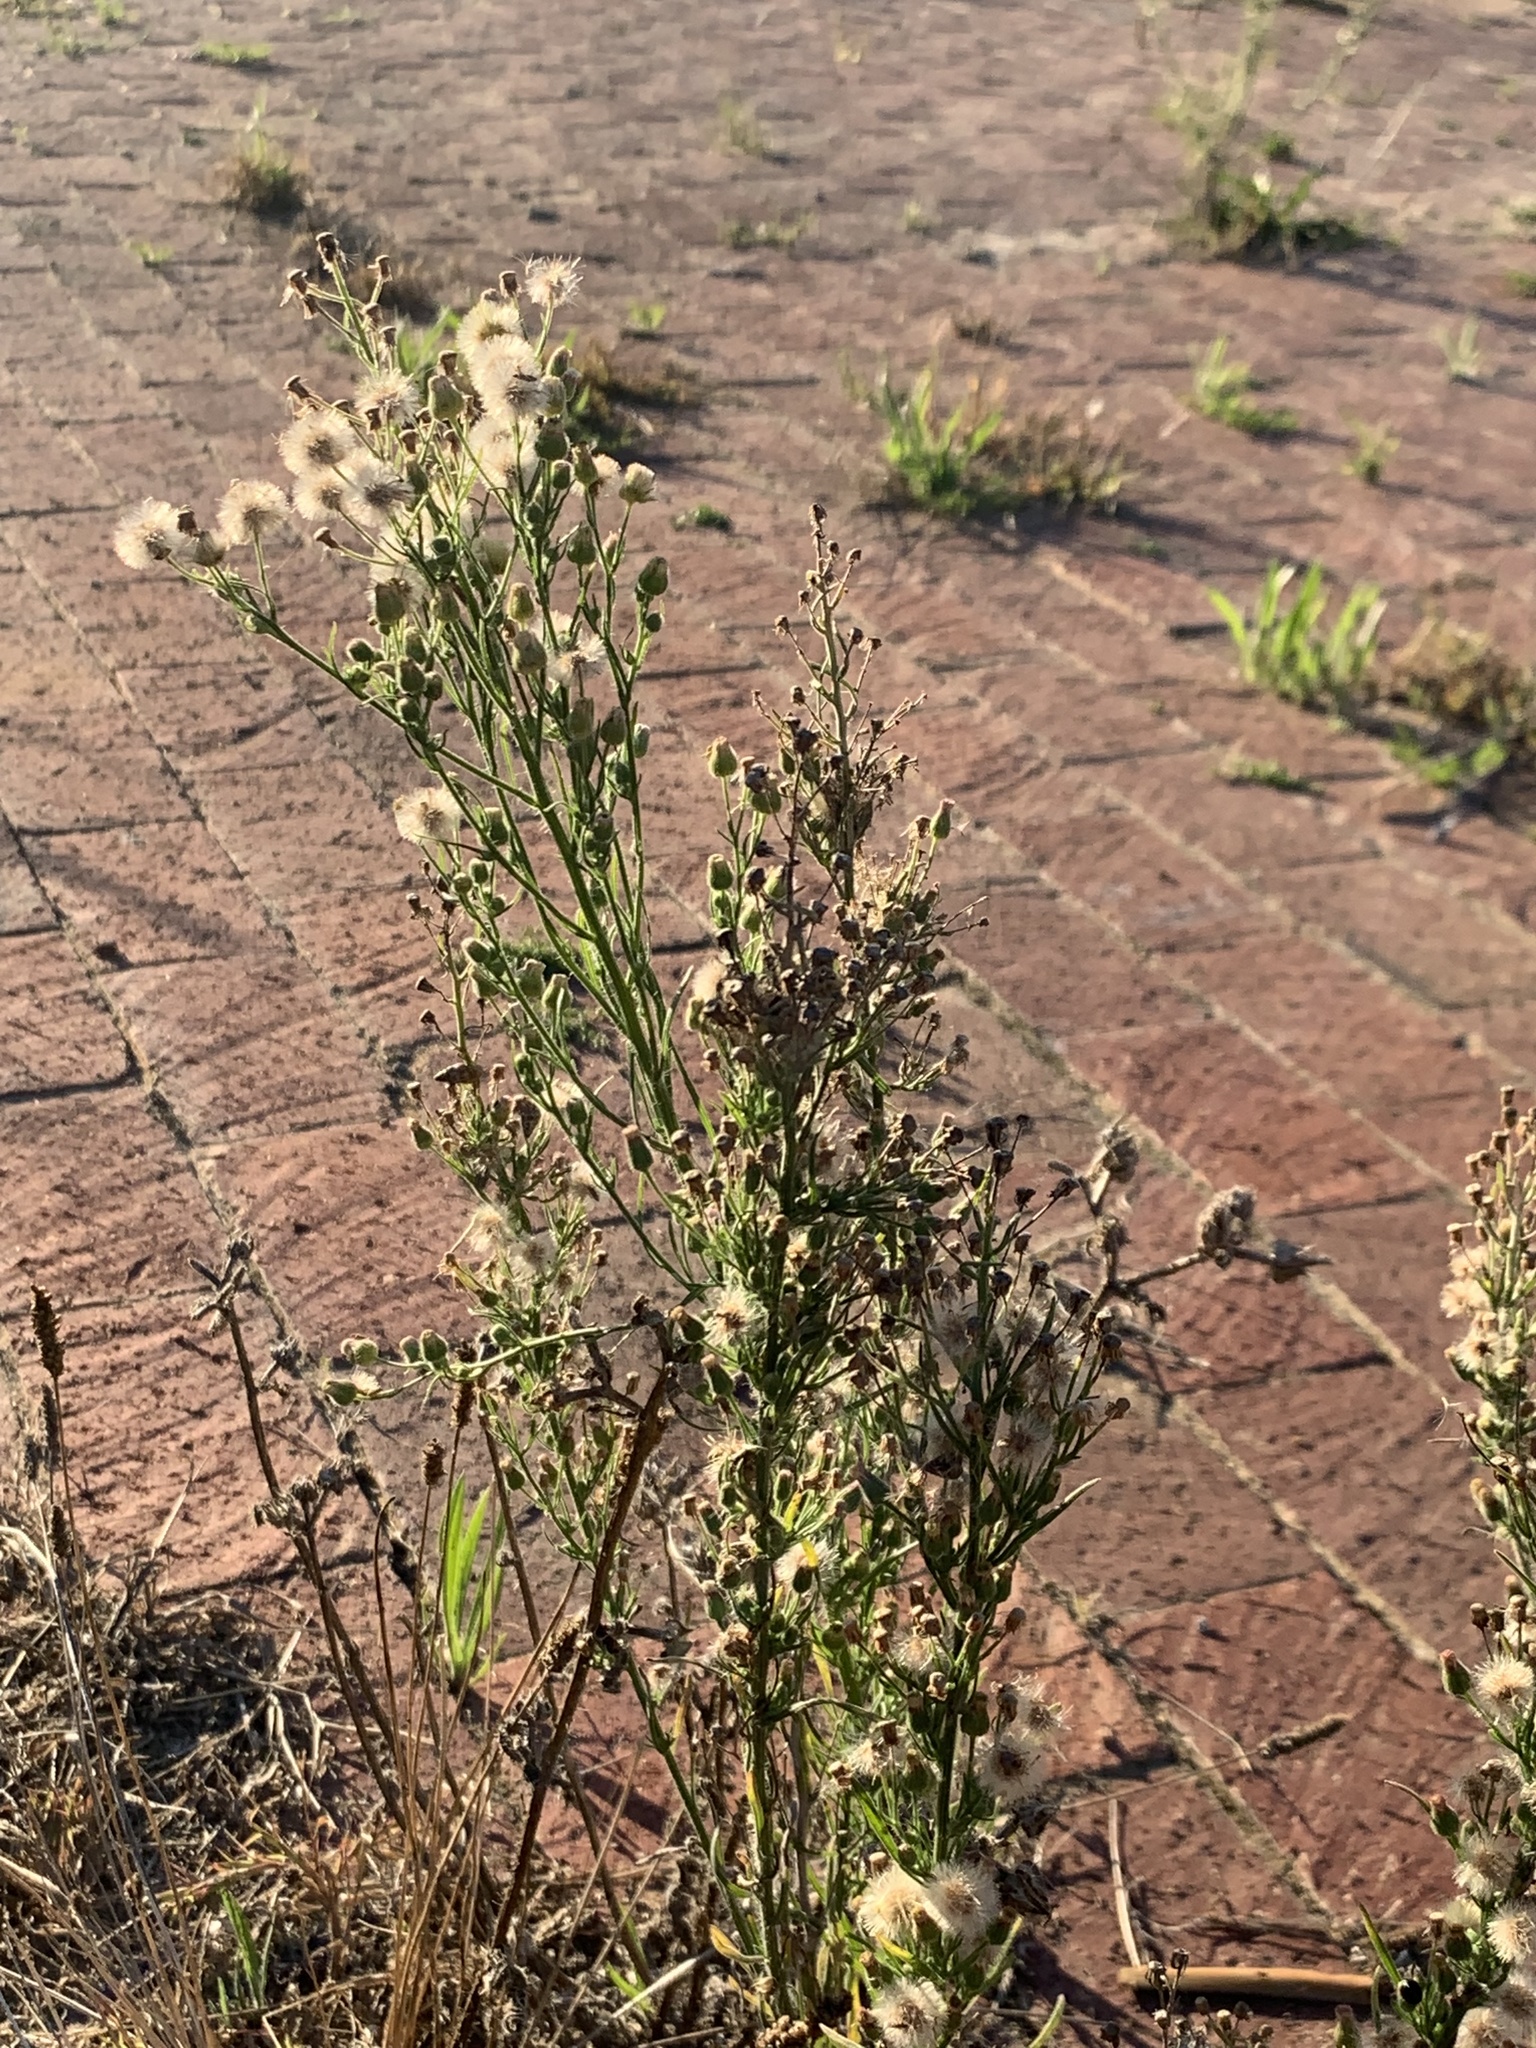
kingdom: Plantae
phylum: Tracheophyta
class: Magnoliopsida
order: Asterales
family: Asteraceae
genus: Erigeron
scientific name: Erigeron bonariensis
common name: Argentine fleabane
